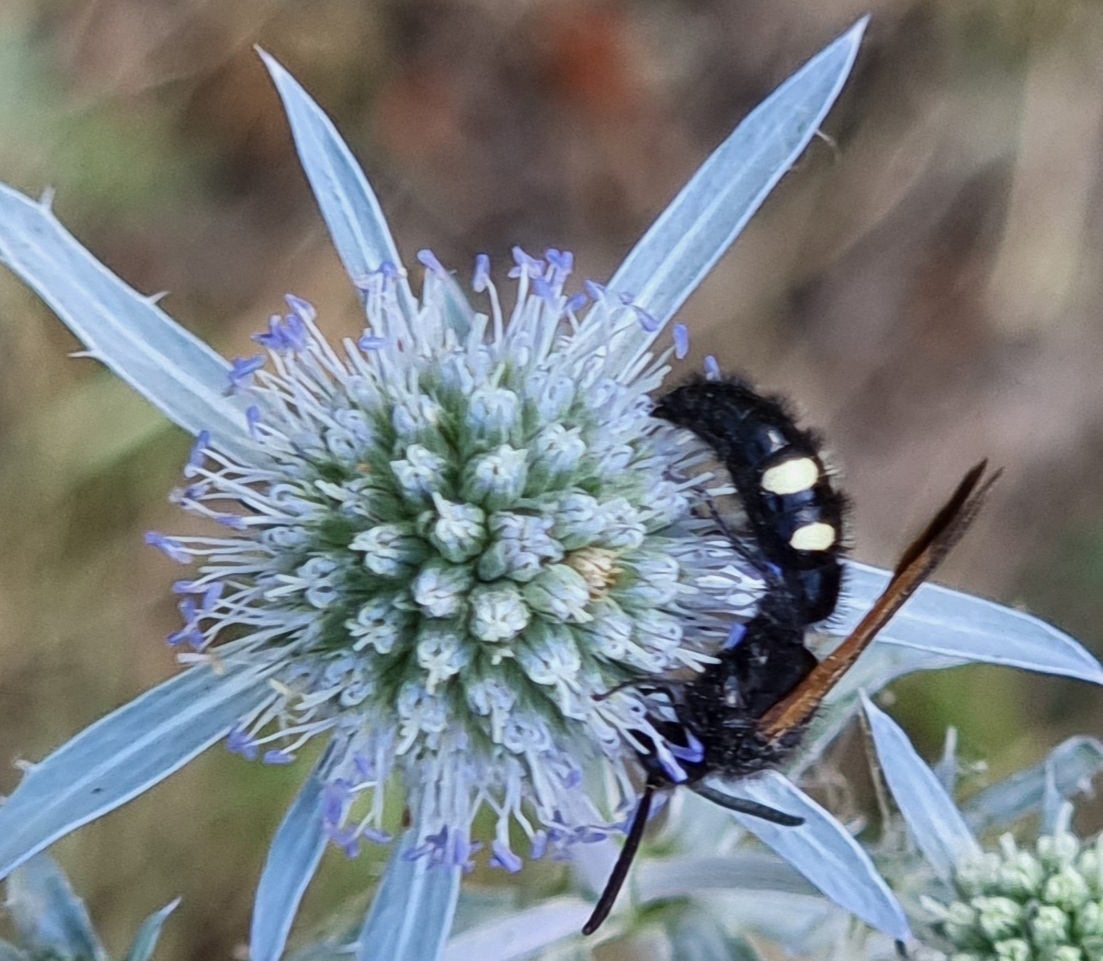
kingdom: Animalia
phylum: Arthropoda
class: Insecta
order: Hymenoptera
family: Vespidae
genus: Vespa
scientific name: Vespa sexmaculata
